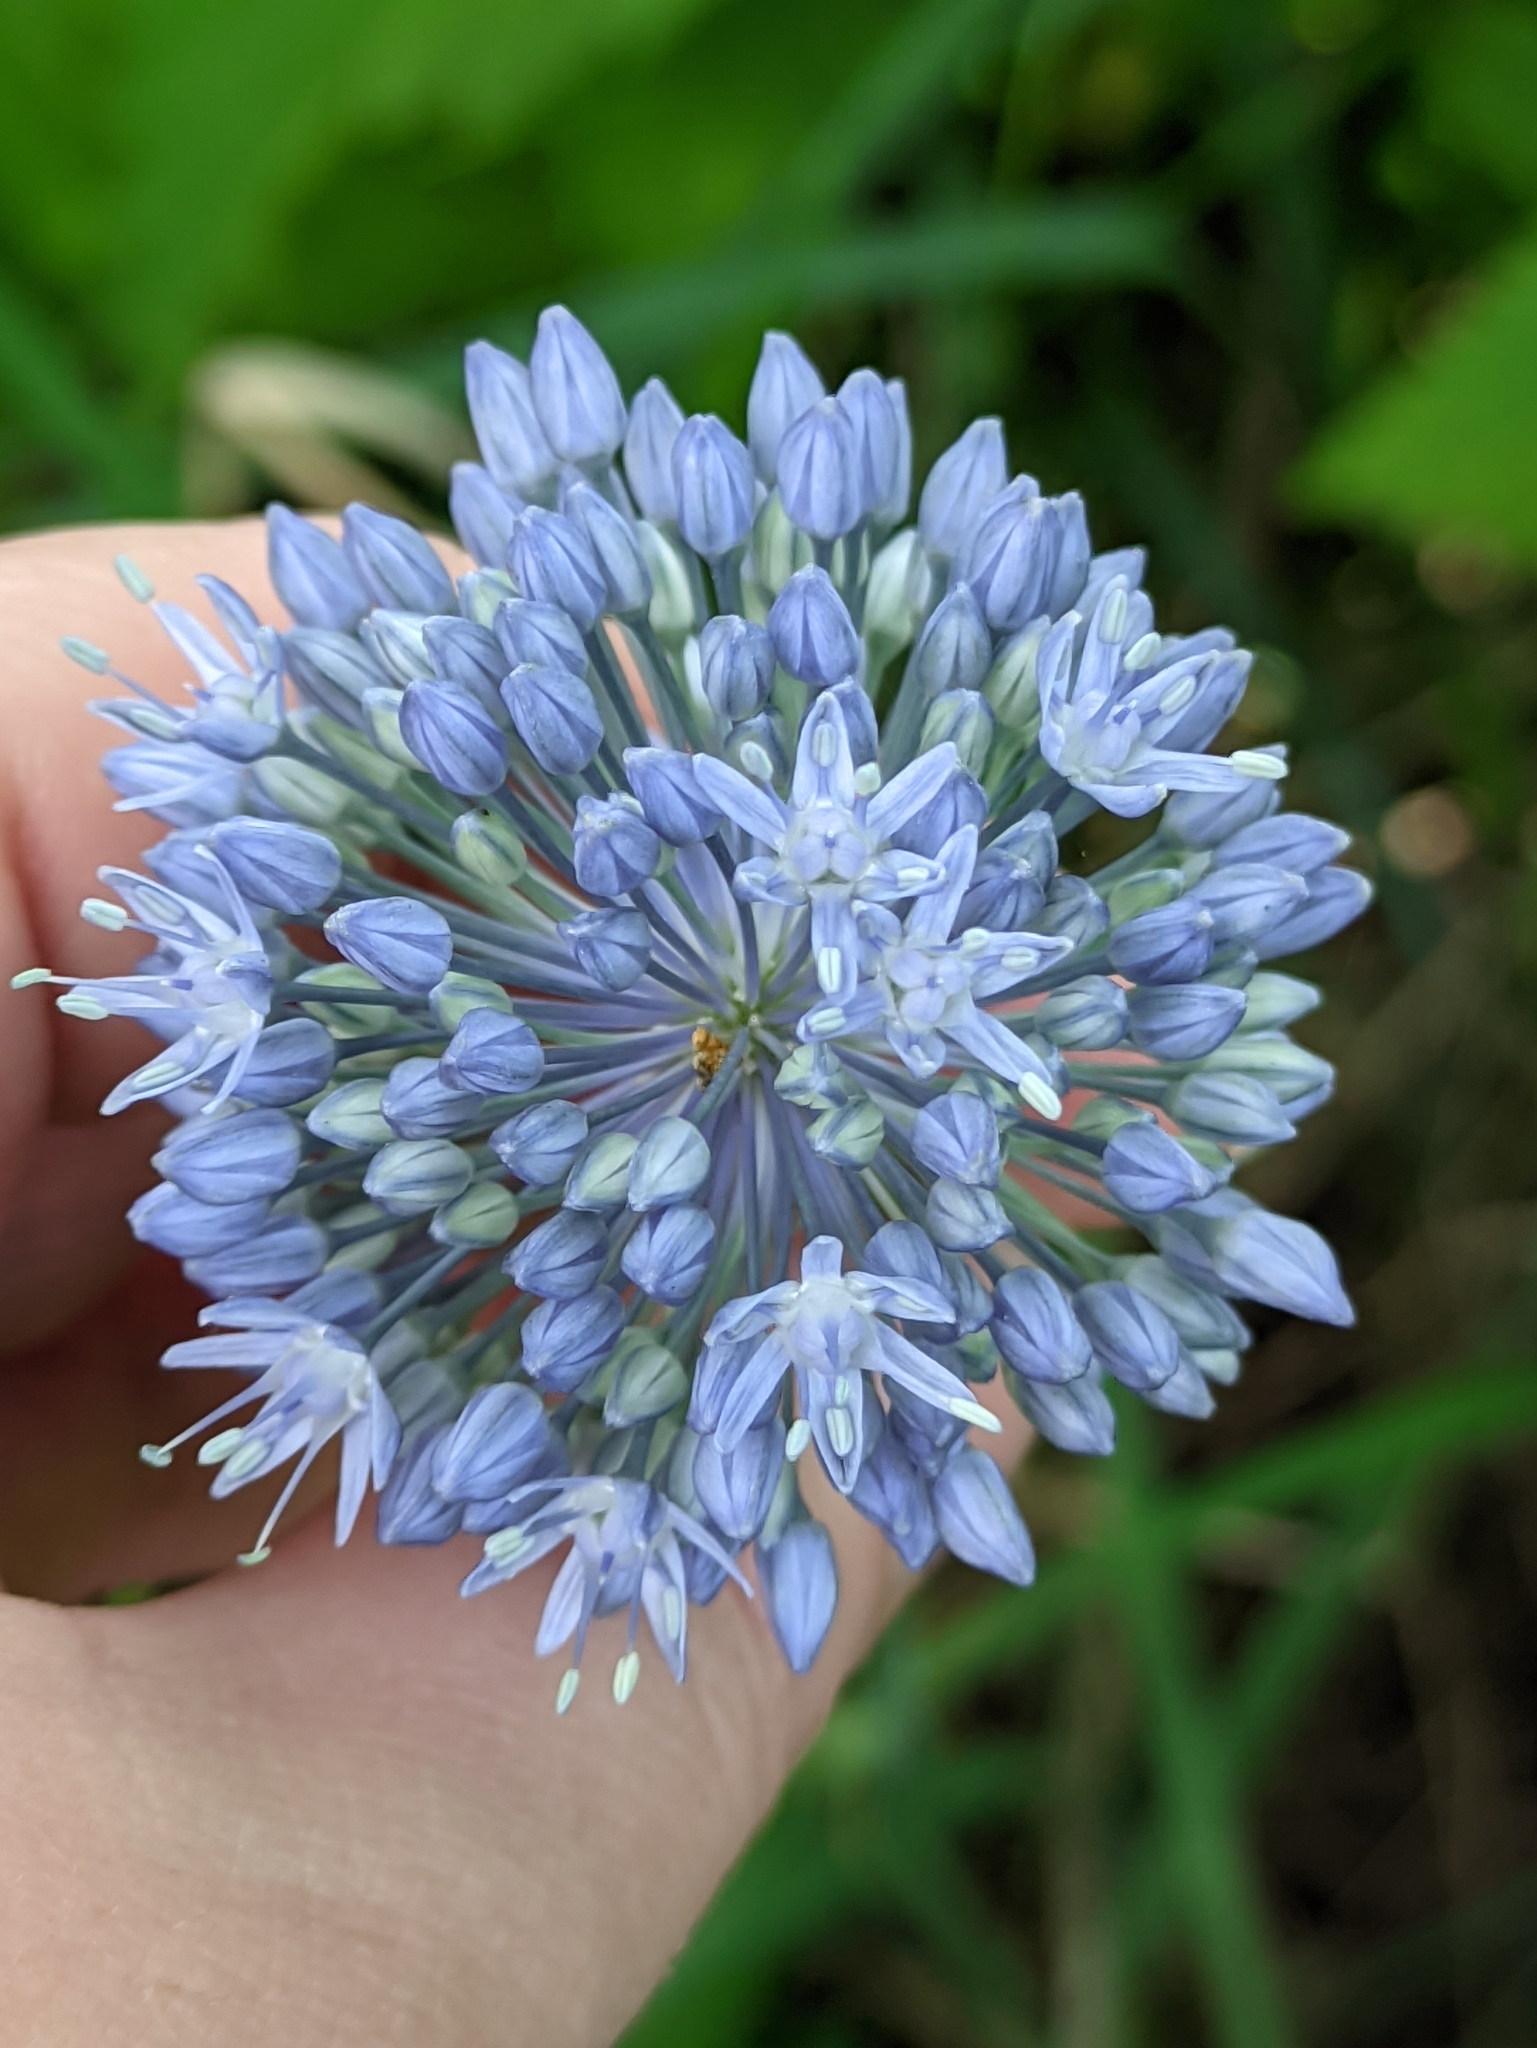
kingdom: Plantae
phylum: Tracheophyta
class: Liliopsida
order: Asparagales
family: Amaryllidaceae
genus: Allium
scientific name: Allium caeruleum
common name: Blue-of-the-heavens
